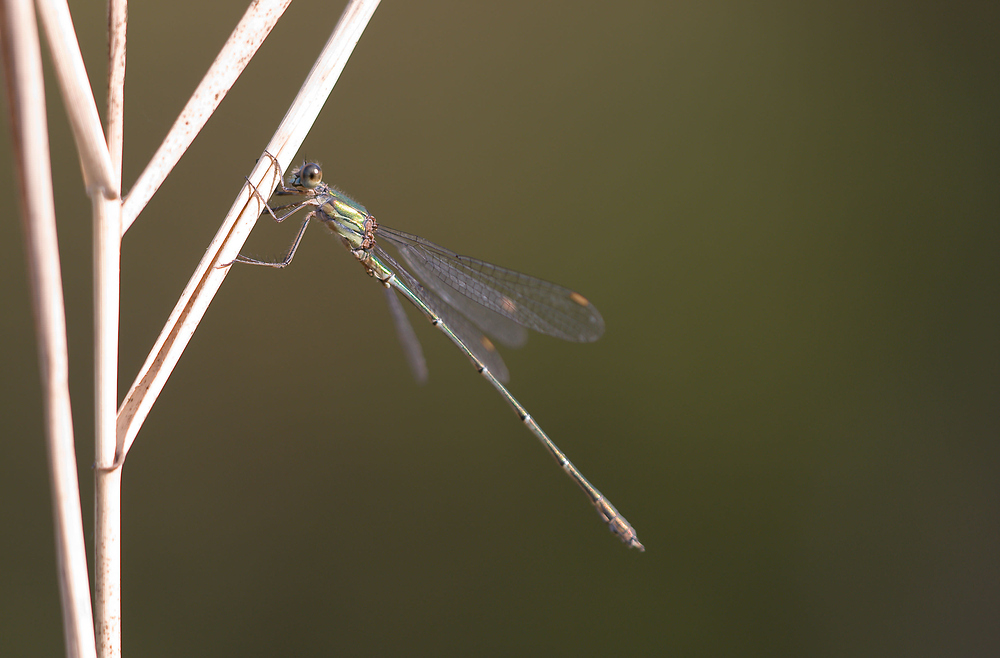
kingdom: Animalia
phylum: Arthropoda
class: Insecta
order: Odonata
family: Lestidae
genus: Chalcolestes
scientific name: Chalcolestes viridis
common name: Green emerald damselfly
